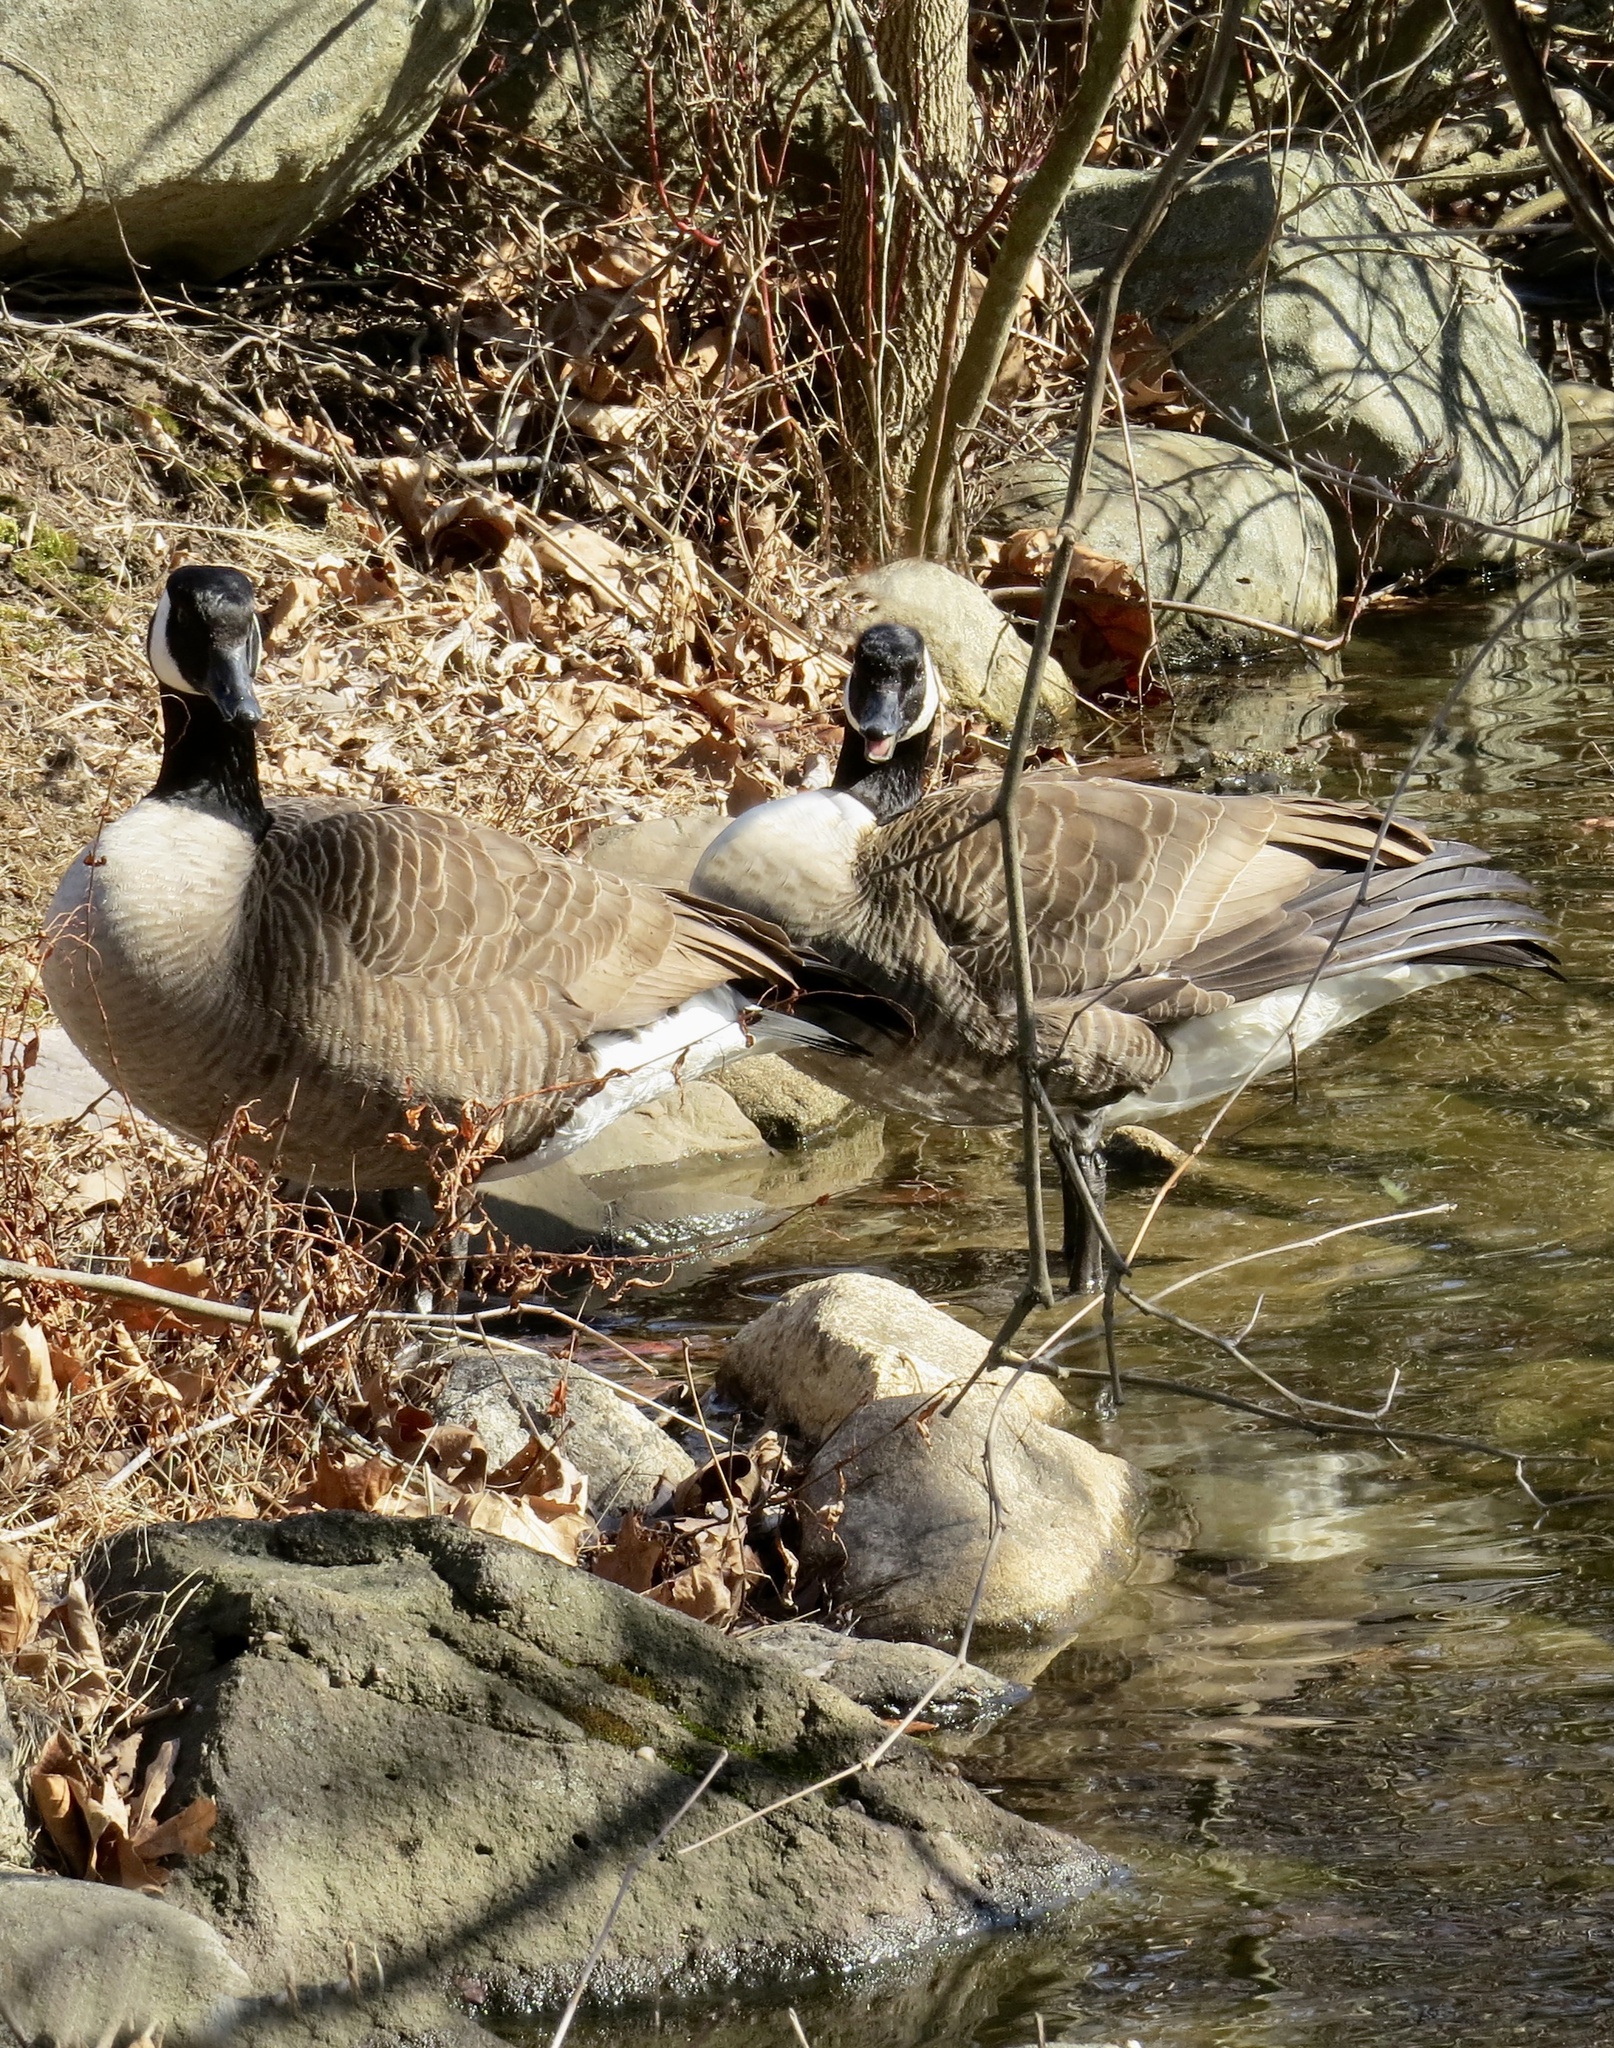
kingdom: Animalia
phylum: Chordata
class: Aves
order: Anseriformes
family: Anatidae
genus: Branta
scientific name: Branta canadensis
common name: Canada goose
